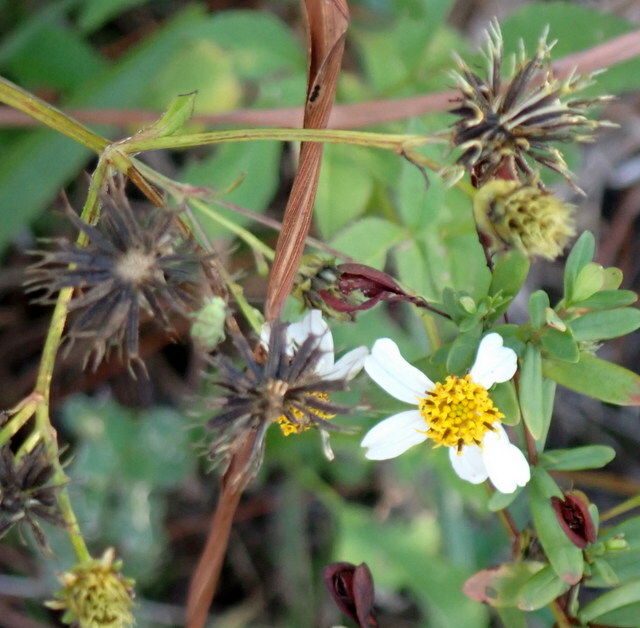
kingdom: Plantae
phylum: Tracheophyta
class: Magnoliopsida
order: Asterales
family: Asteraceae
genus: Bidens
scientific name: Bidens alba
